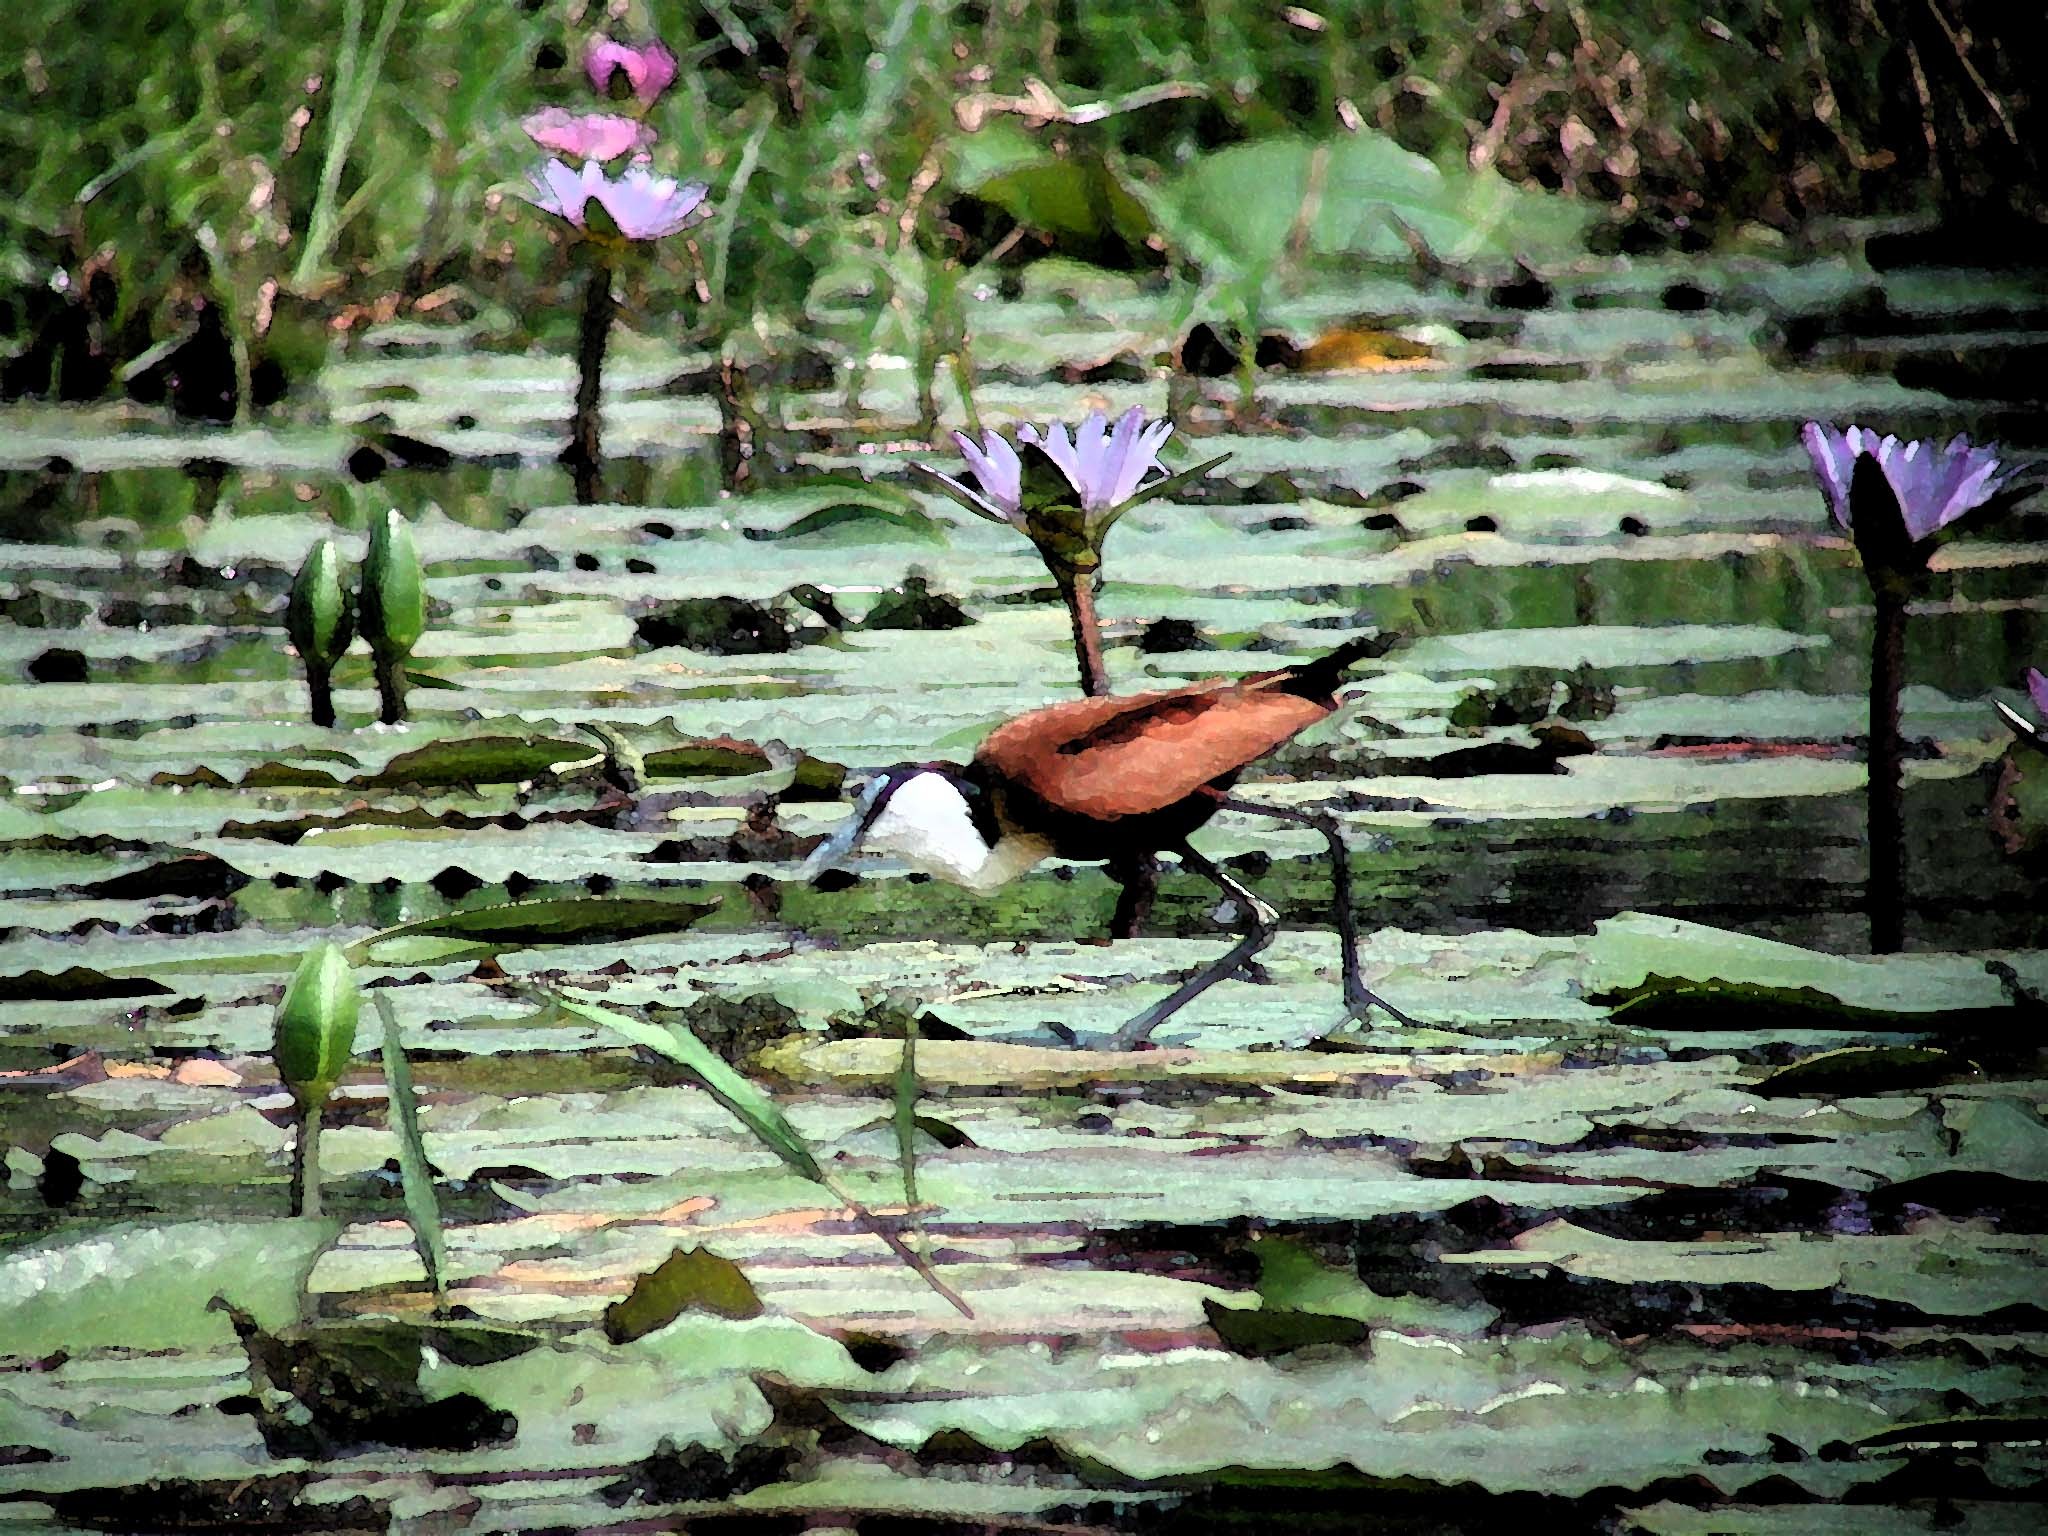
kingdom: Animalia
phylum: Chordata
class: Aves
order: Charadriiformes
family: Jacanidae
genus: Actophilornis
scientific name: Actophilornis africanus
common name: African jacana
